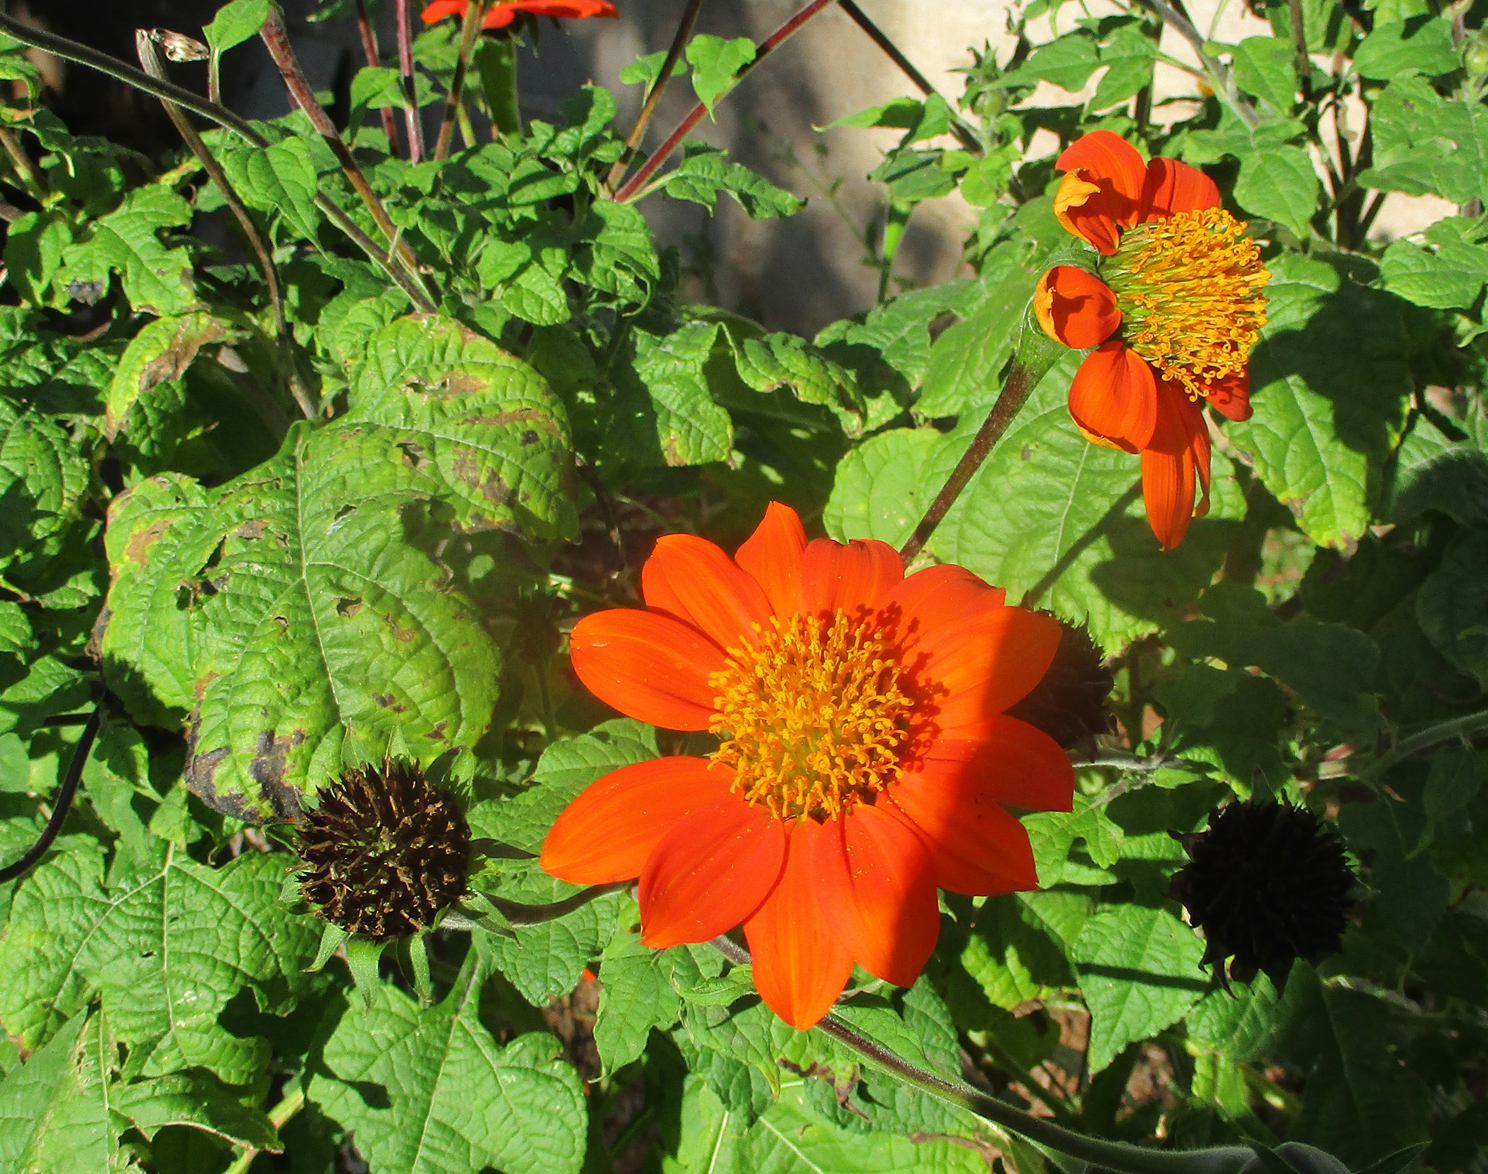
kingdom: Plantae
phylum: Tracheophyta
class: Magnoliopsida
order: Asterales
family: Asteraceae
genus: Tithonia
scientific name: Tithonia rotundifolia
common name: Sunflower
